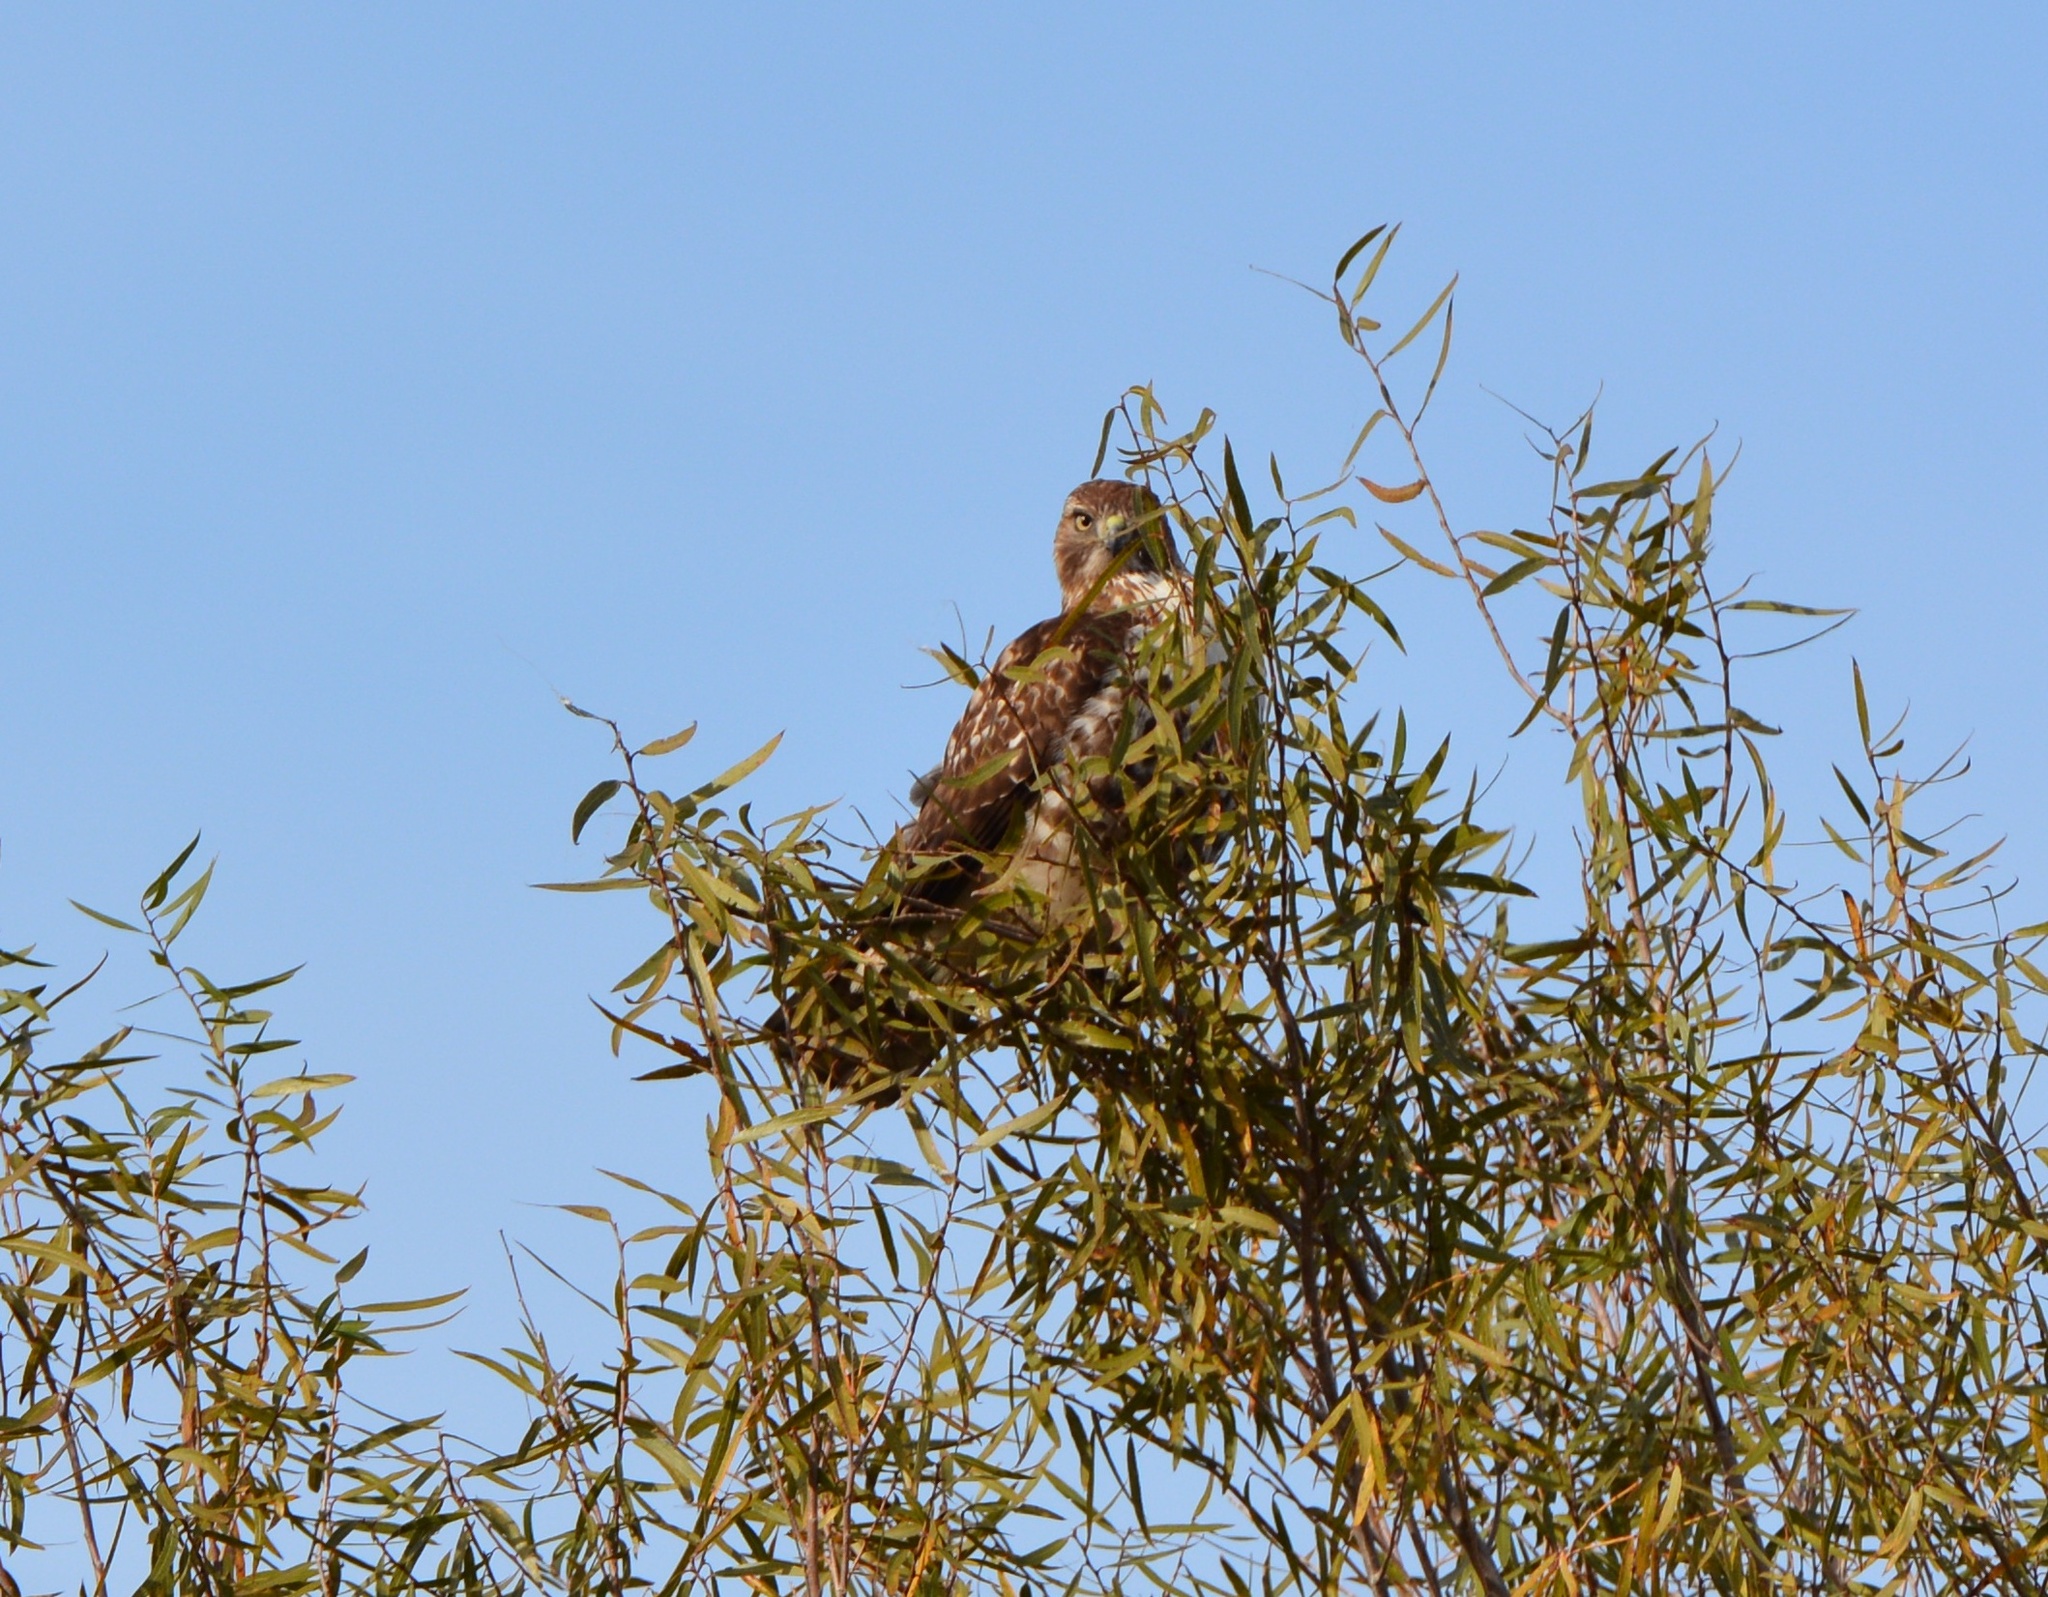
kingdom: Animalia
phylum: Chordata
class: Aves
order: Accipitriformes
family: Accipitridae
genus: Buteo
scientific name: Buteo jamaicensis
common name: Red-tailed hawk
